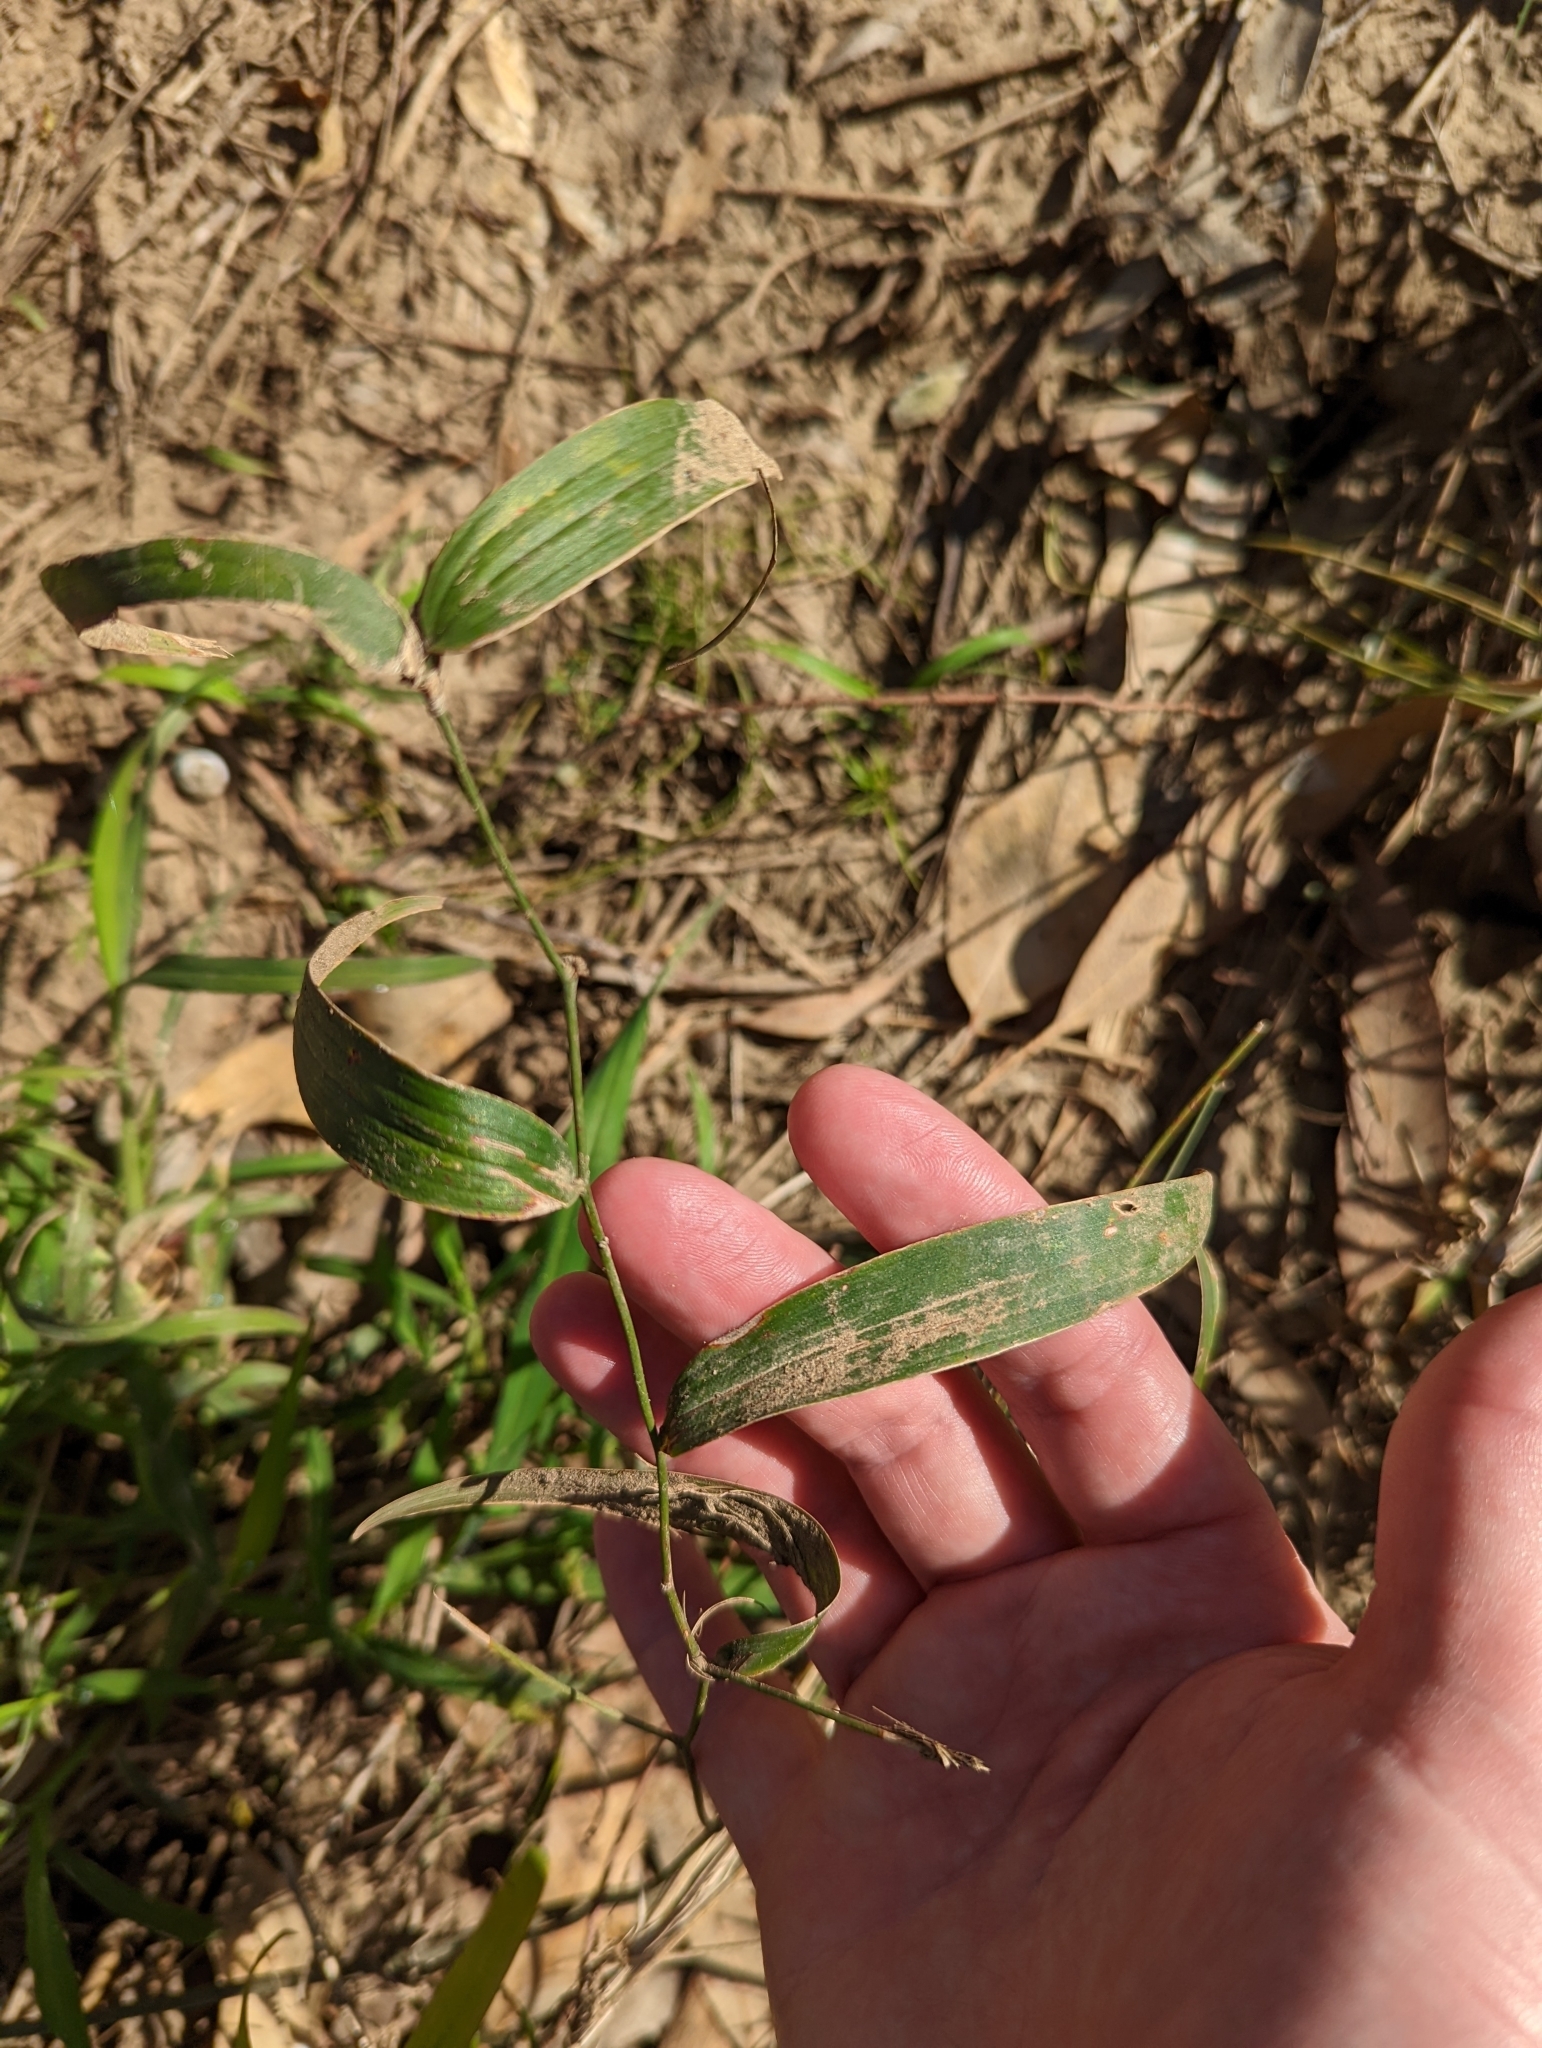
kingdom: Plantae
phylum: Tracheophyta
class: Liliopsida
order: Asparagales
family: Asparagaceae
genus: Eustrephus
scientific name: Eustrephus latifolius
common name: Orangevine
